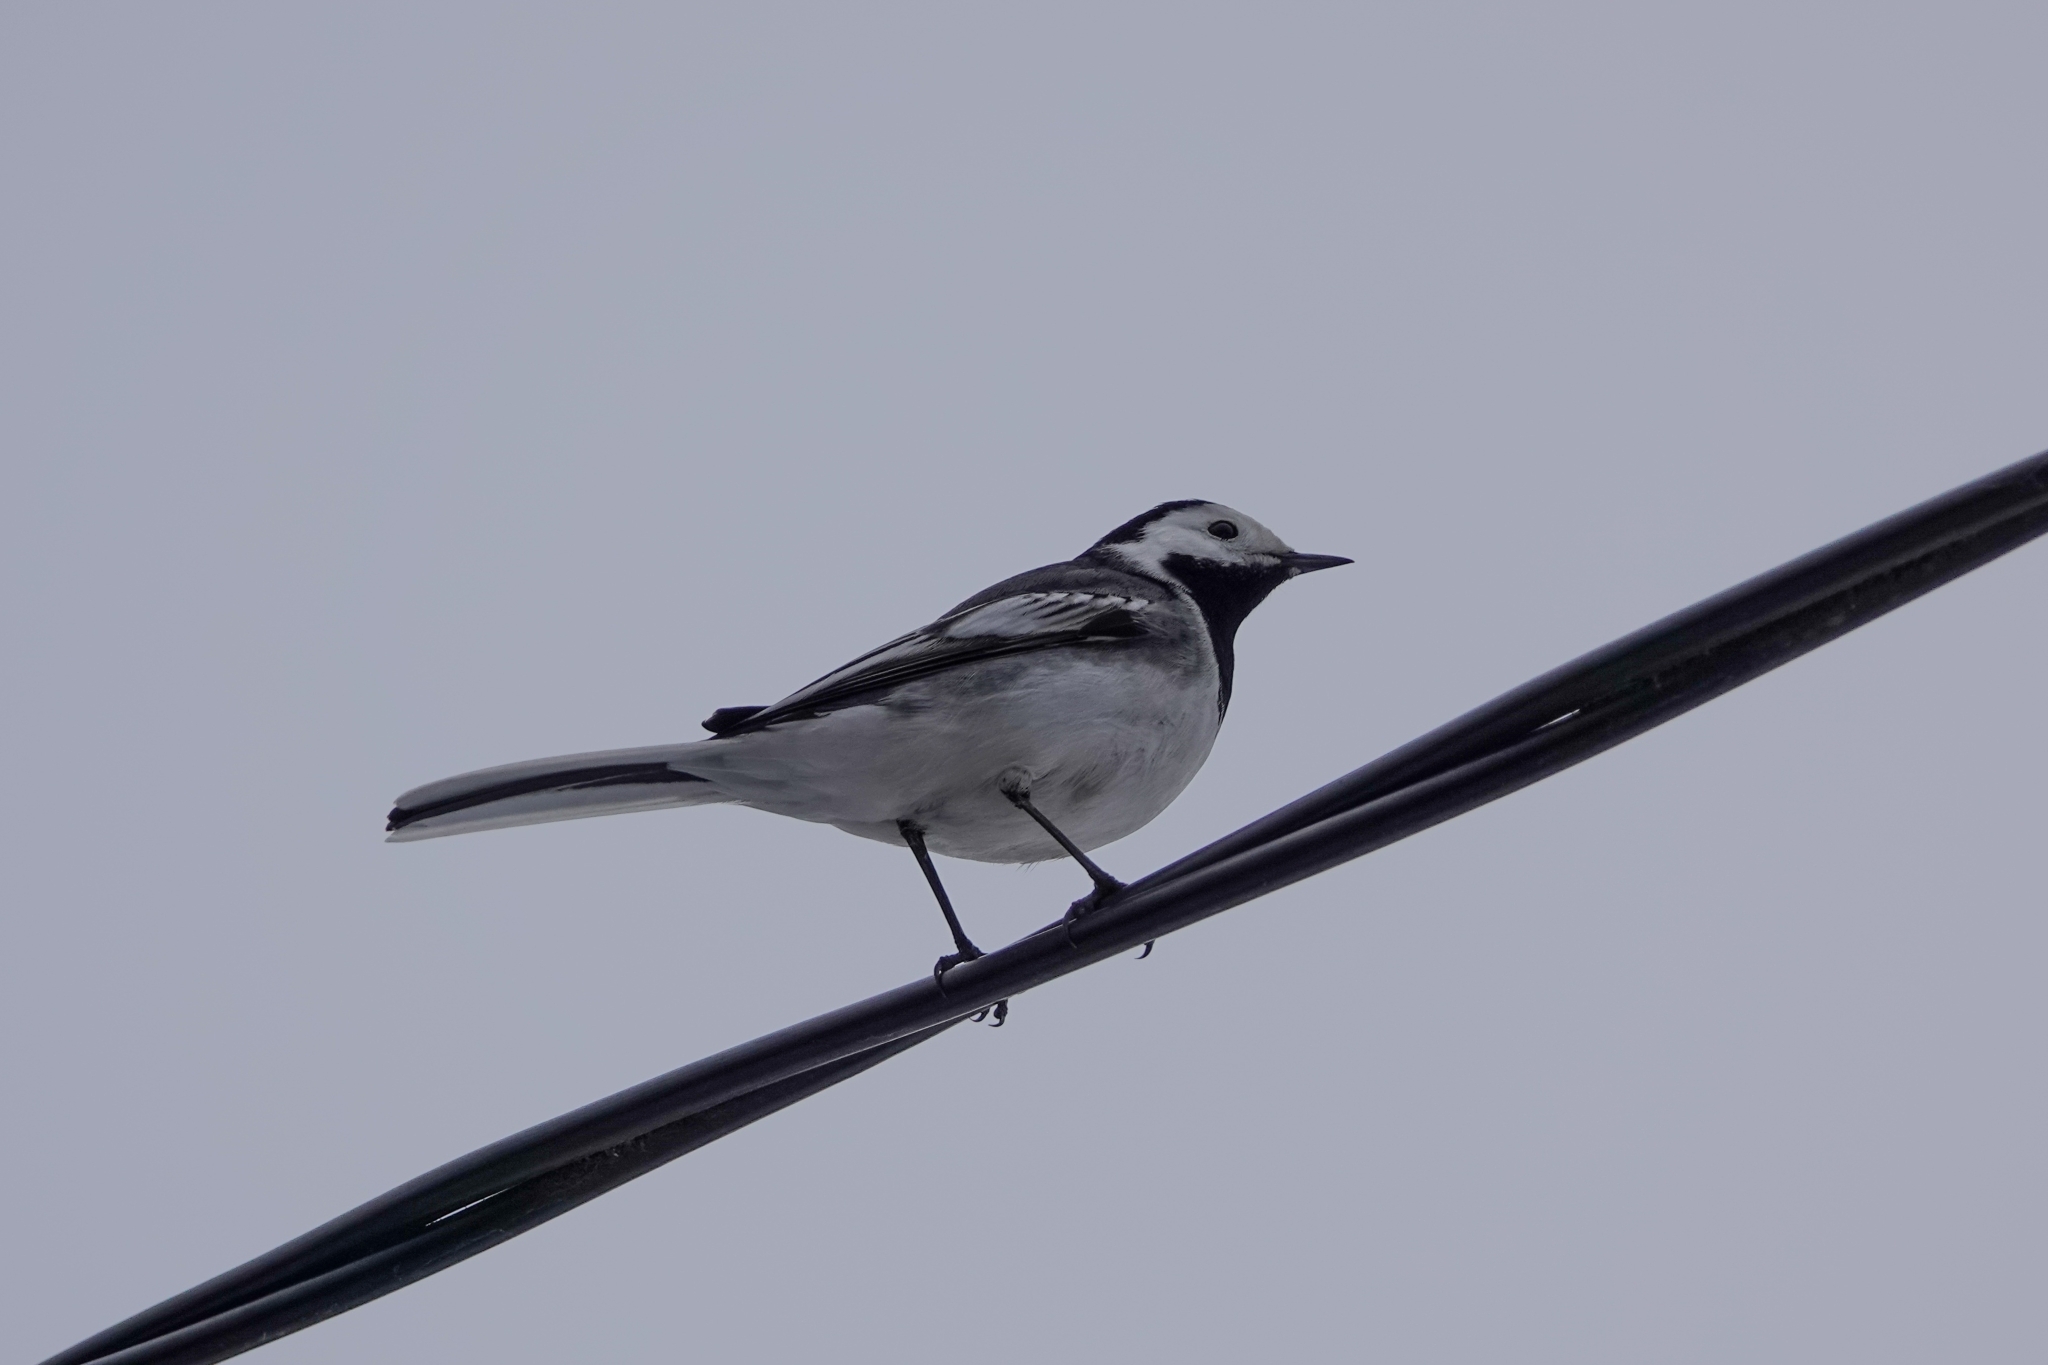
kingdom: Animalia
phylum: Chordata
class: Aves
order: Passeriformes
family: Motacillidae
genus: Motacilla
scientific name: Motacilla alba
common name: White wagtail
